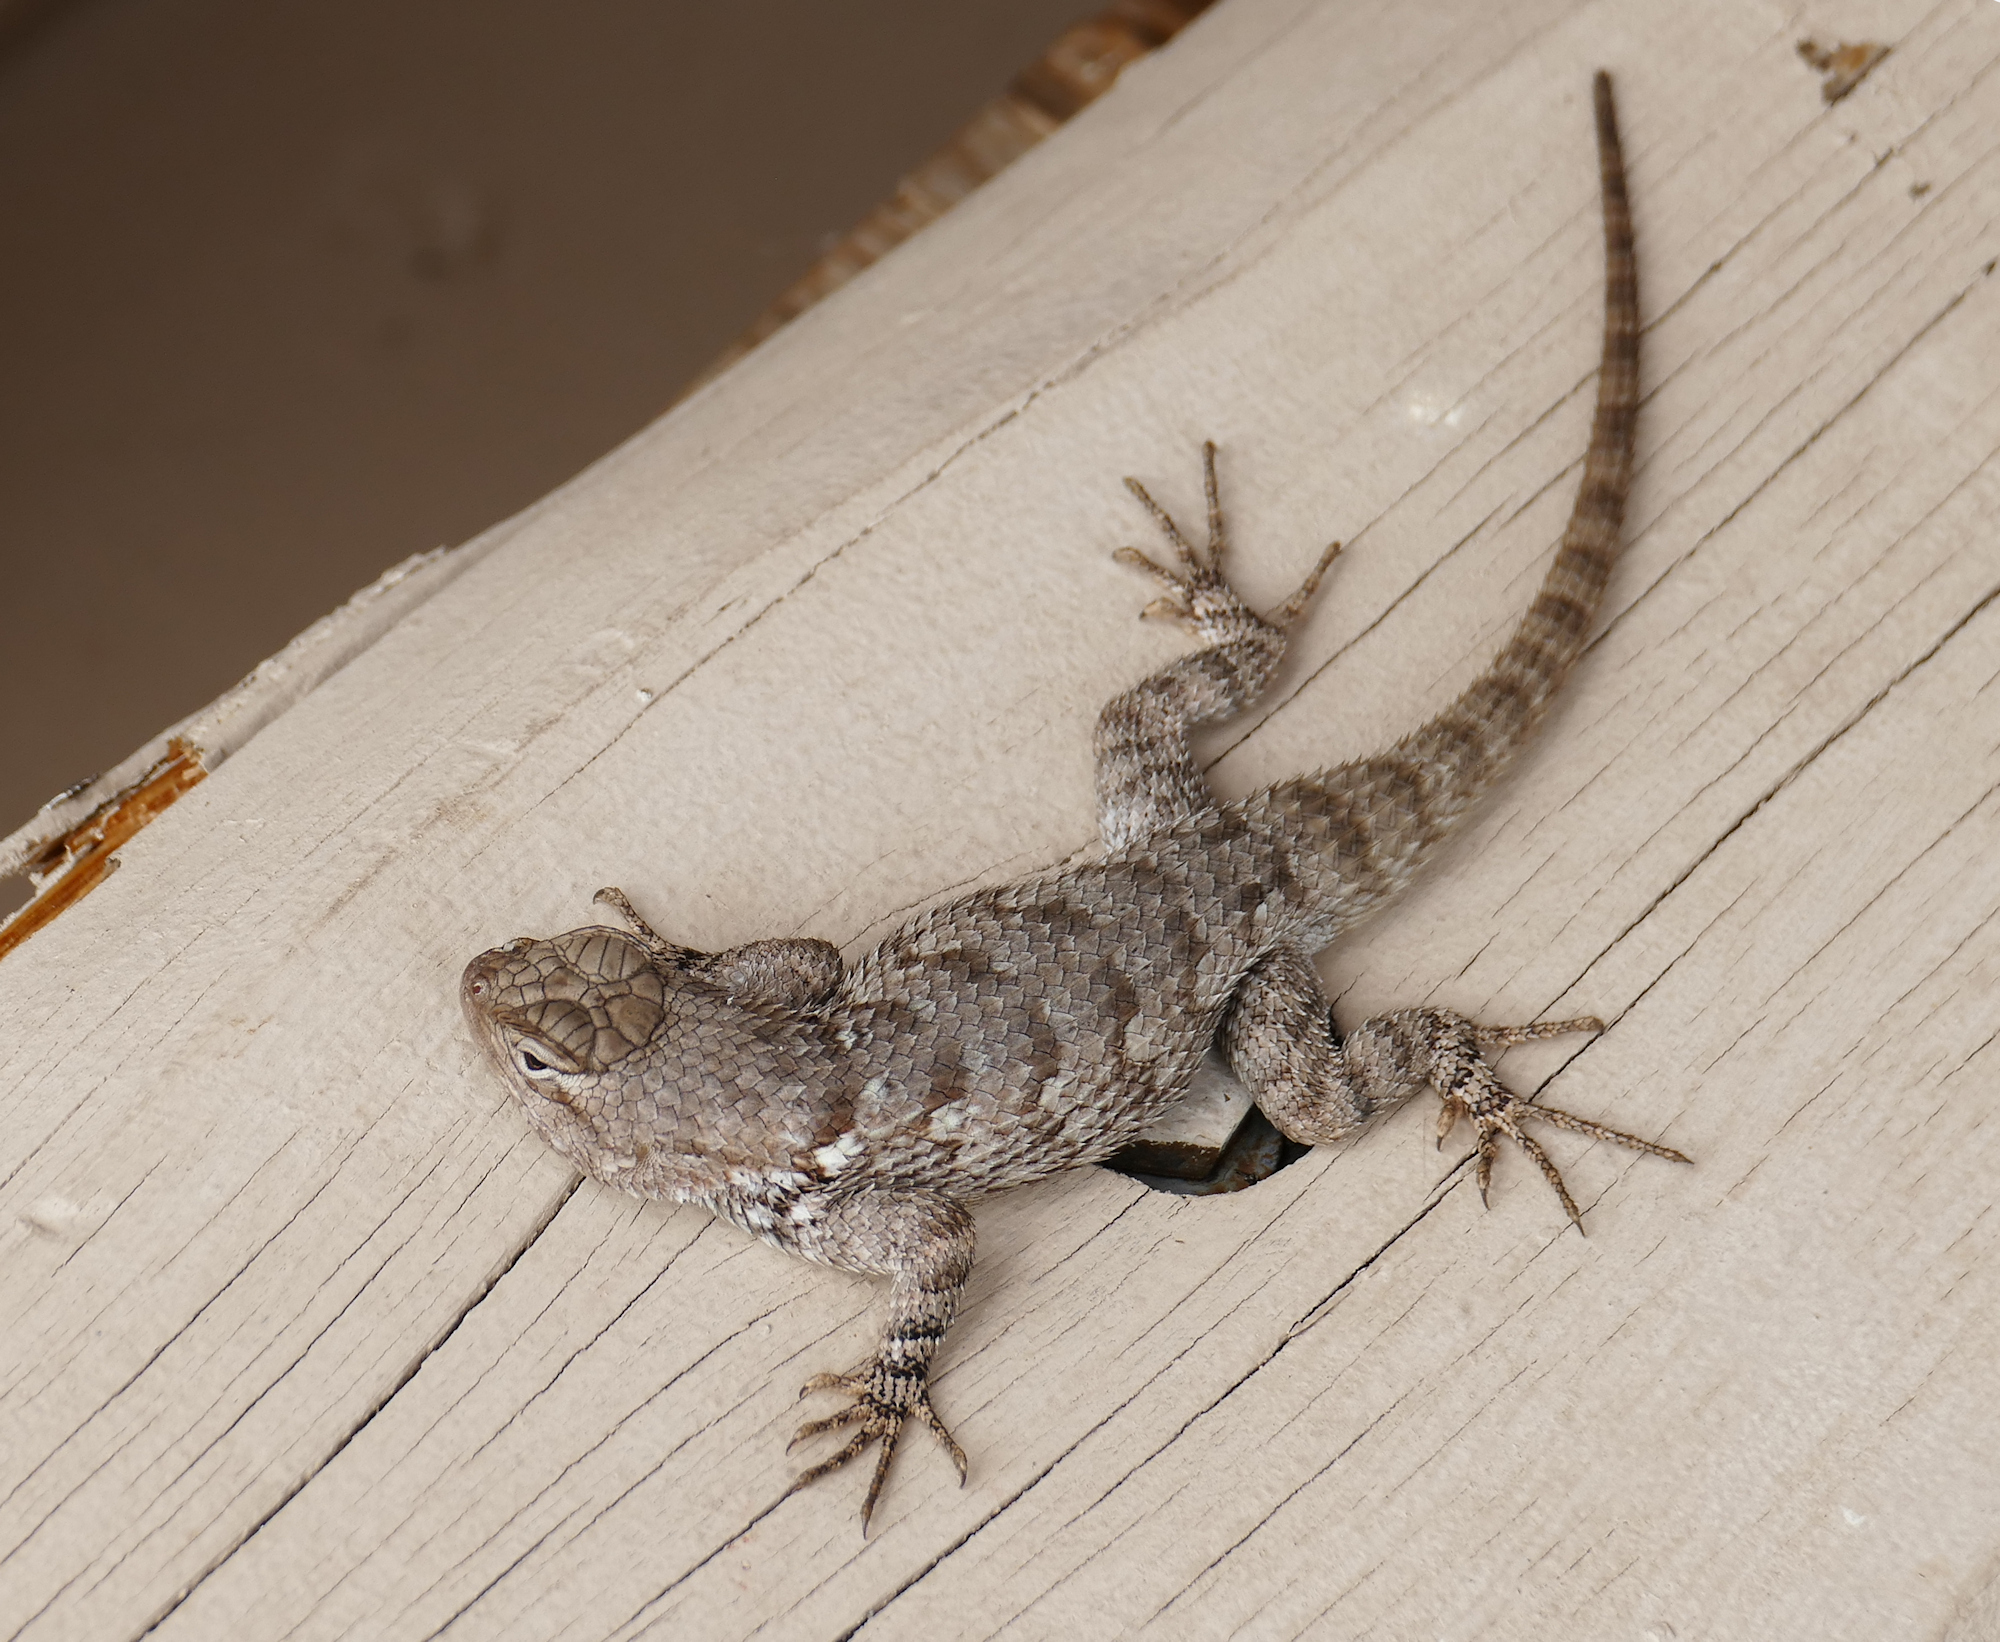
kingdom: Animalia
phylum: Chordata
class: Squamata
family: Phrynosomatidae
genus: Sceloporus
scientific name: Sceloporus clarkii
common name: Clark's spiny lizard
